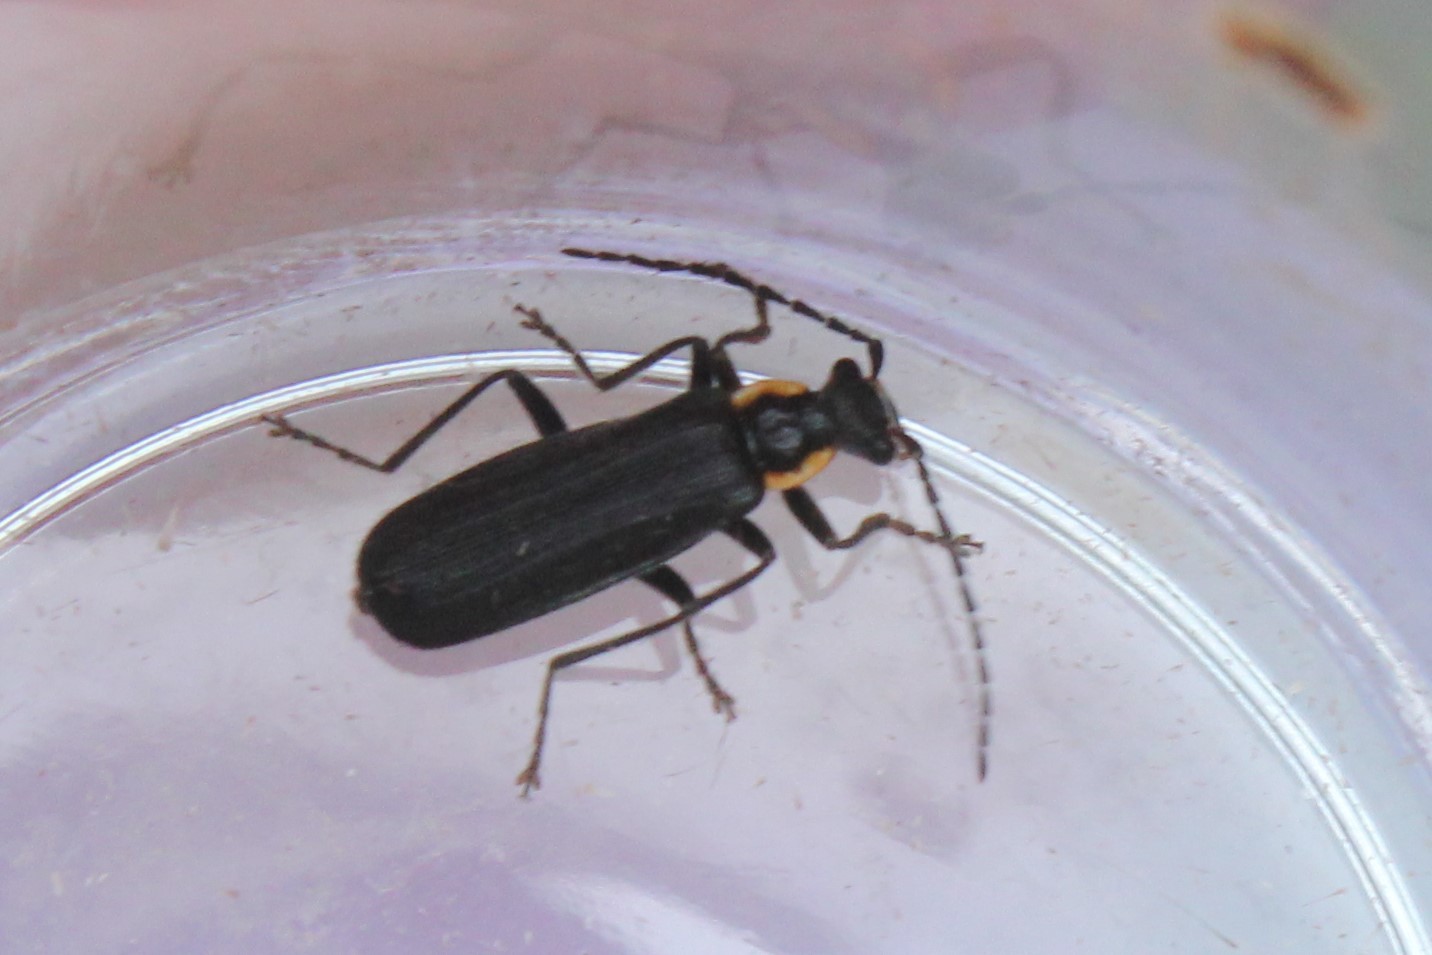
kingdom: Animalia
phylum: Arthropoda
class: Insecta
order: Coleoptera
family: Cantharidae
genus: Podabrus
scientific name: Podabrus rugosulus
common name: Wrinkled soldier beetle
